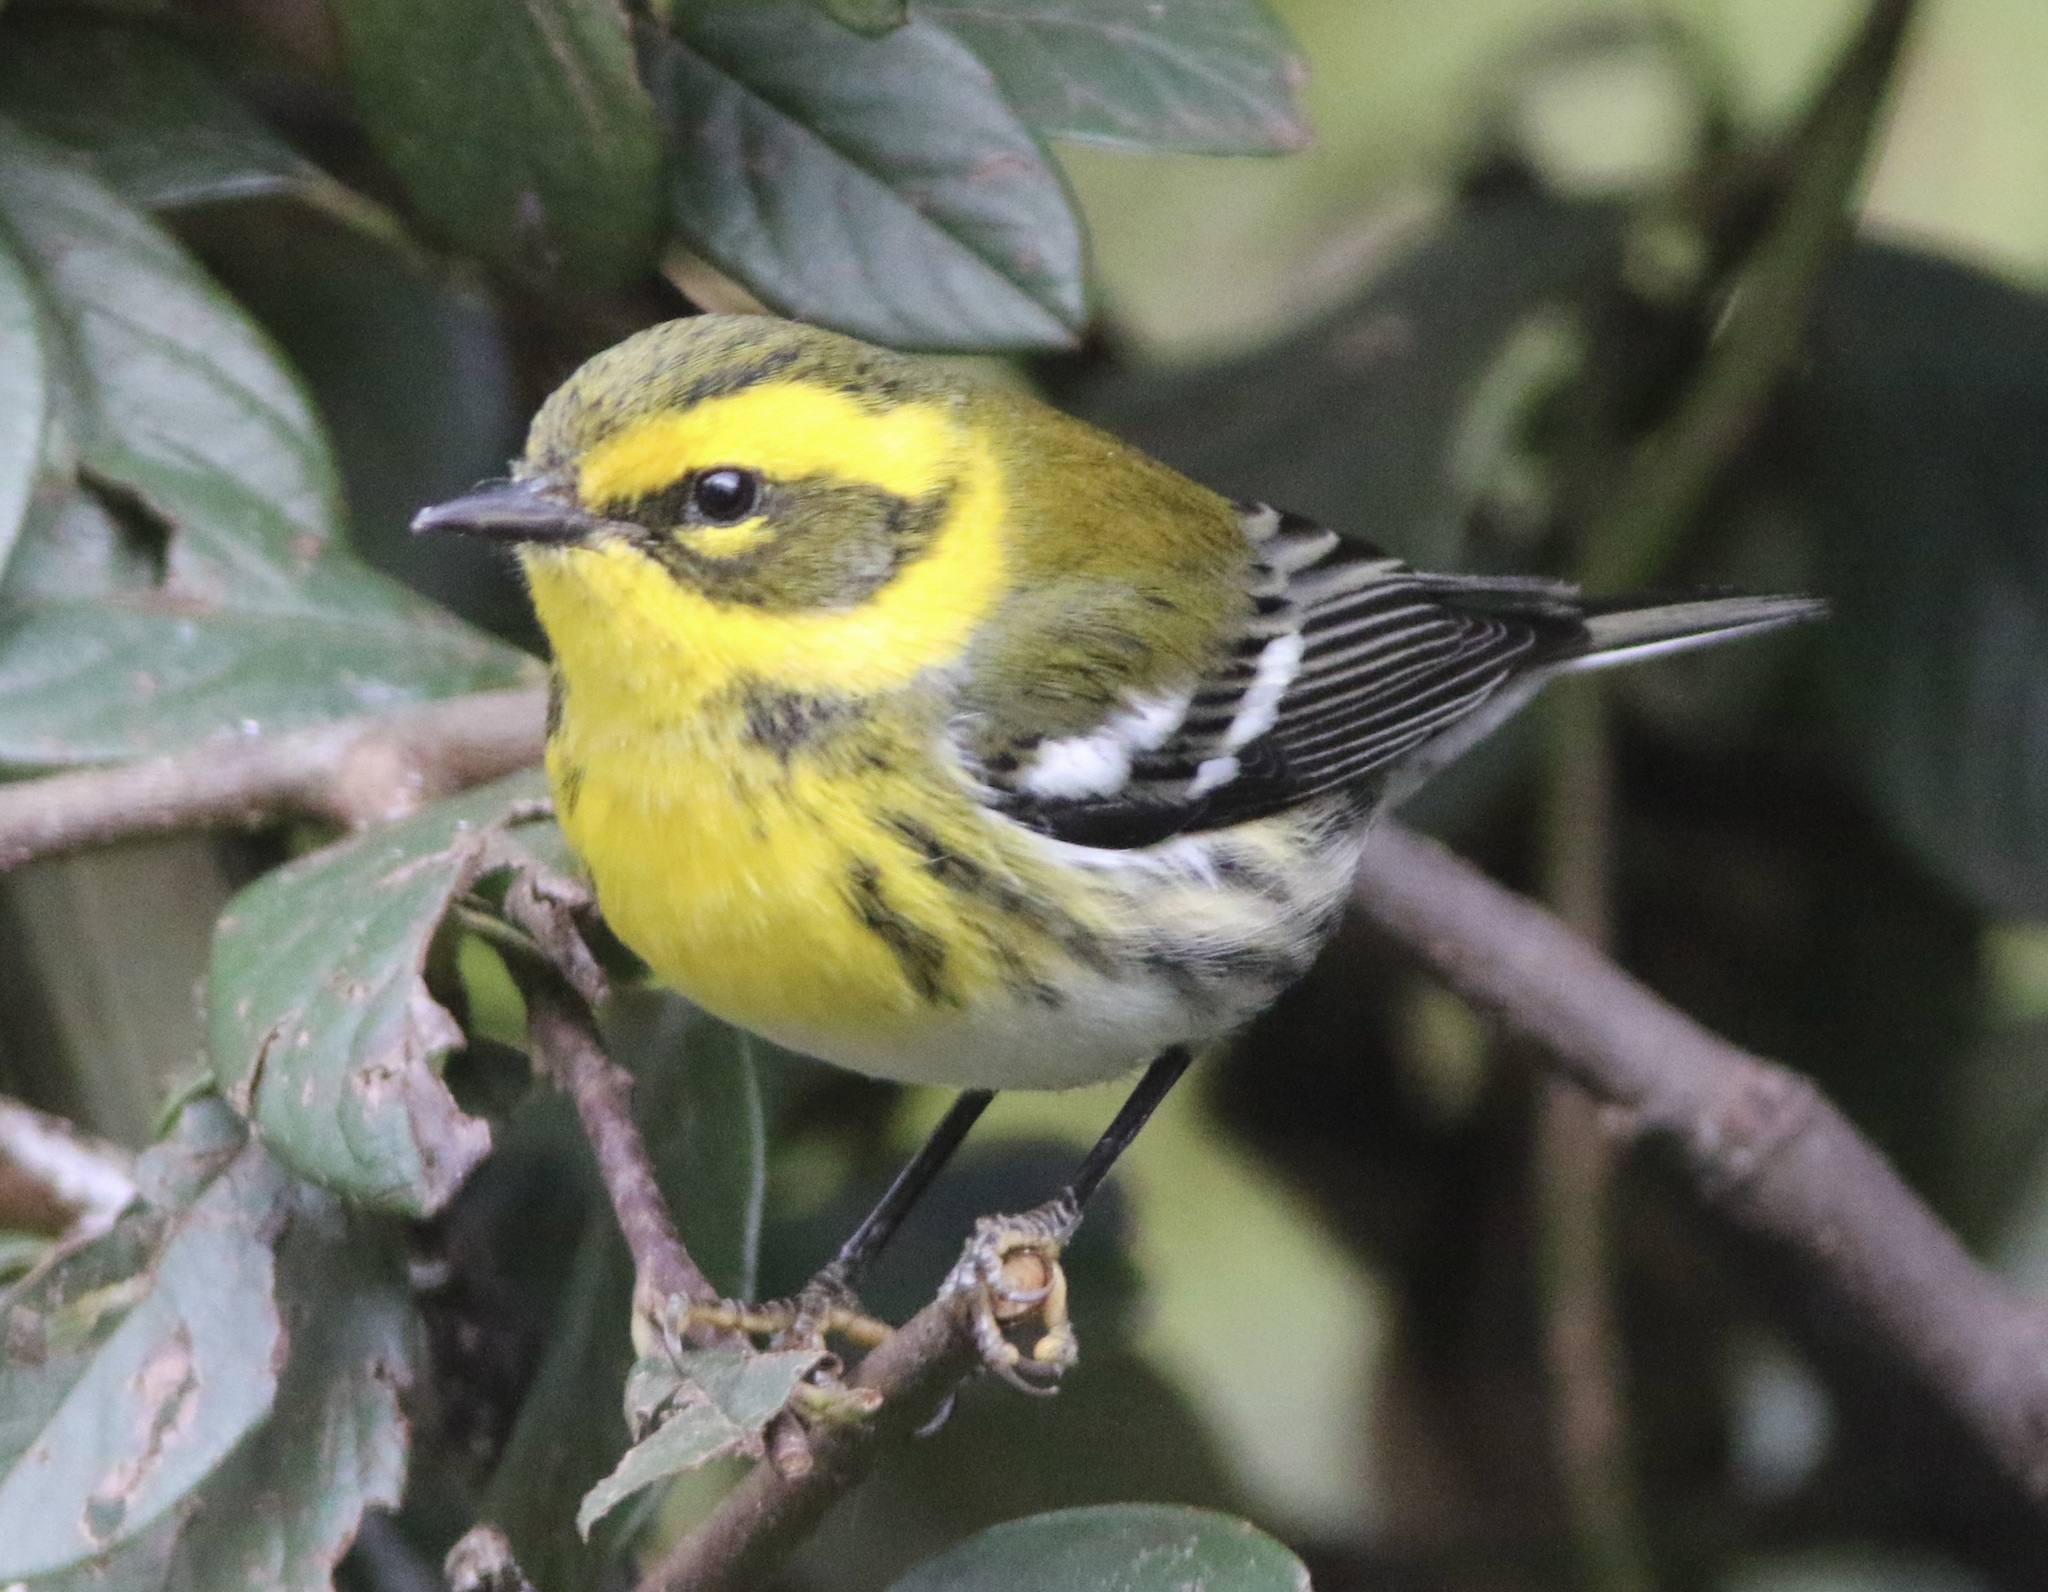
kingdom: Animalia
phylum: Chordata
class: Aves
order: Passeriformes
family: Parulidae
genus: Setophaga
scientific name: Setophaga townsendi
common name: Townsend's warbler
